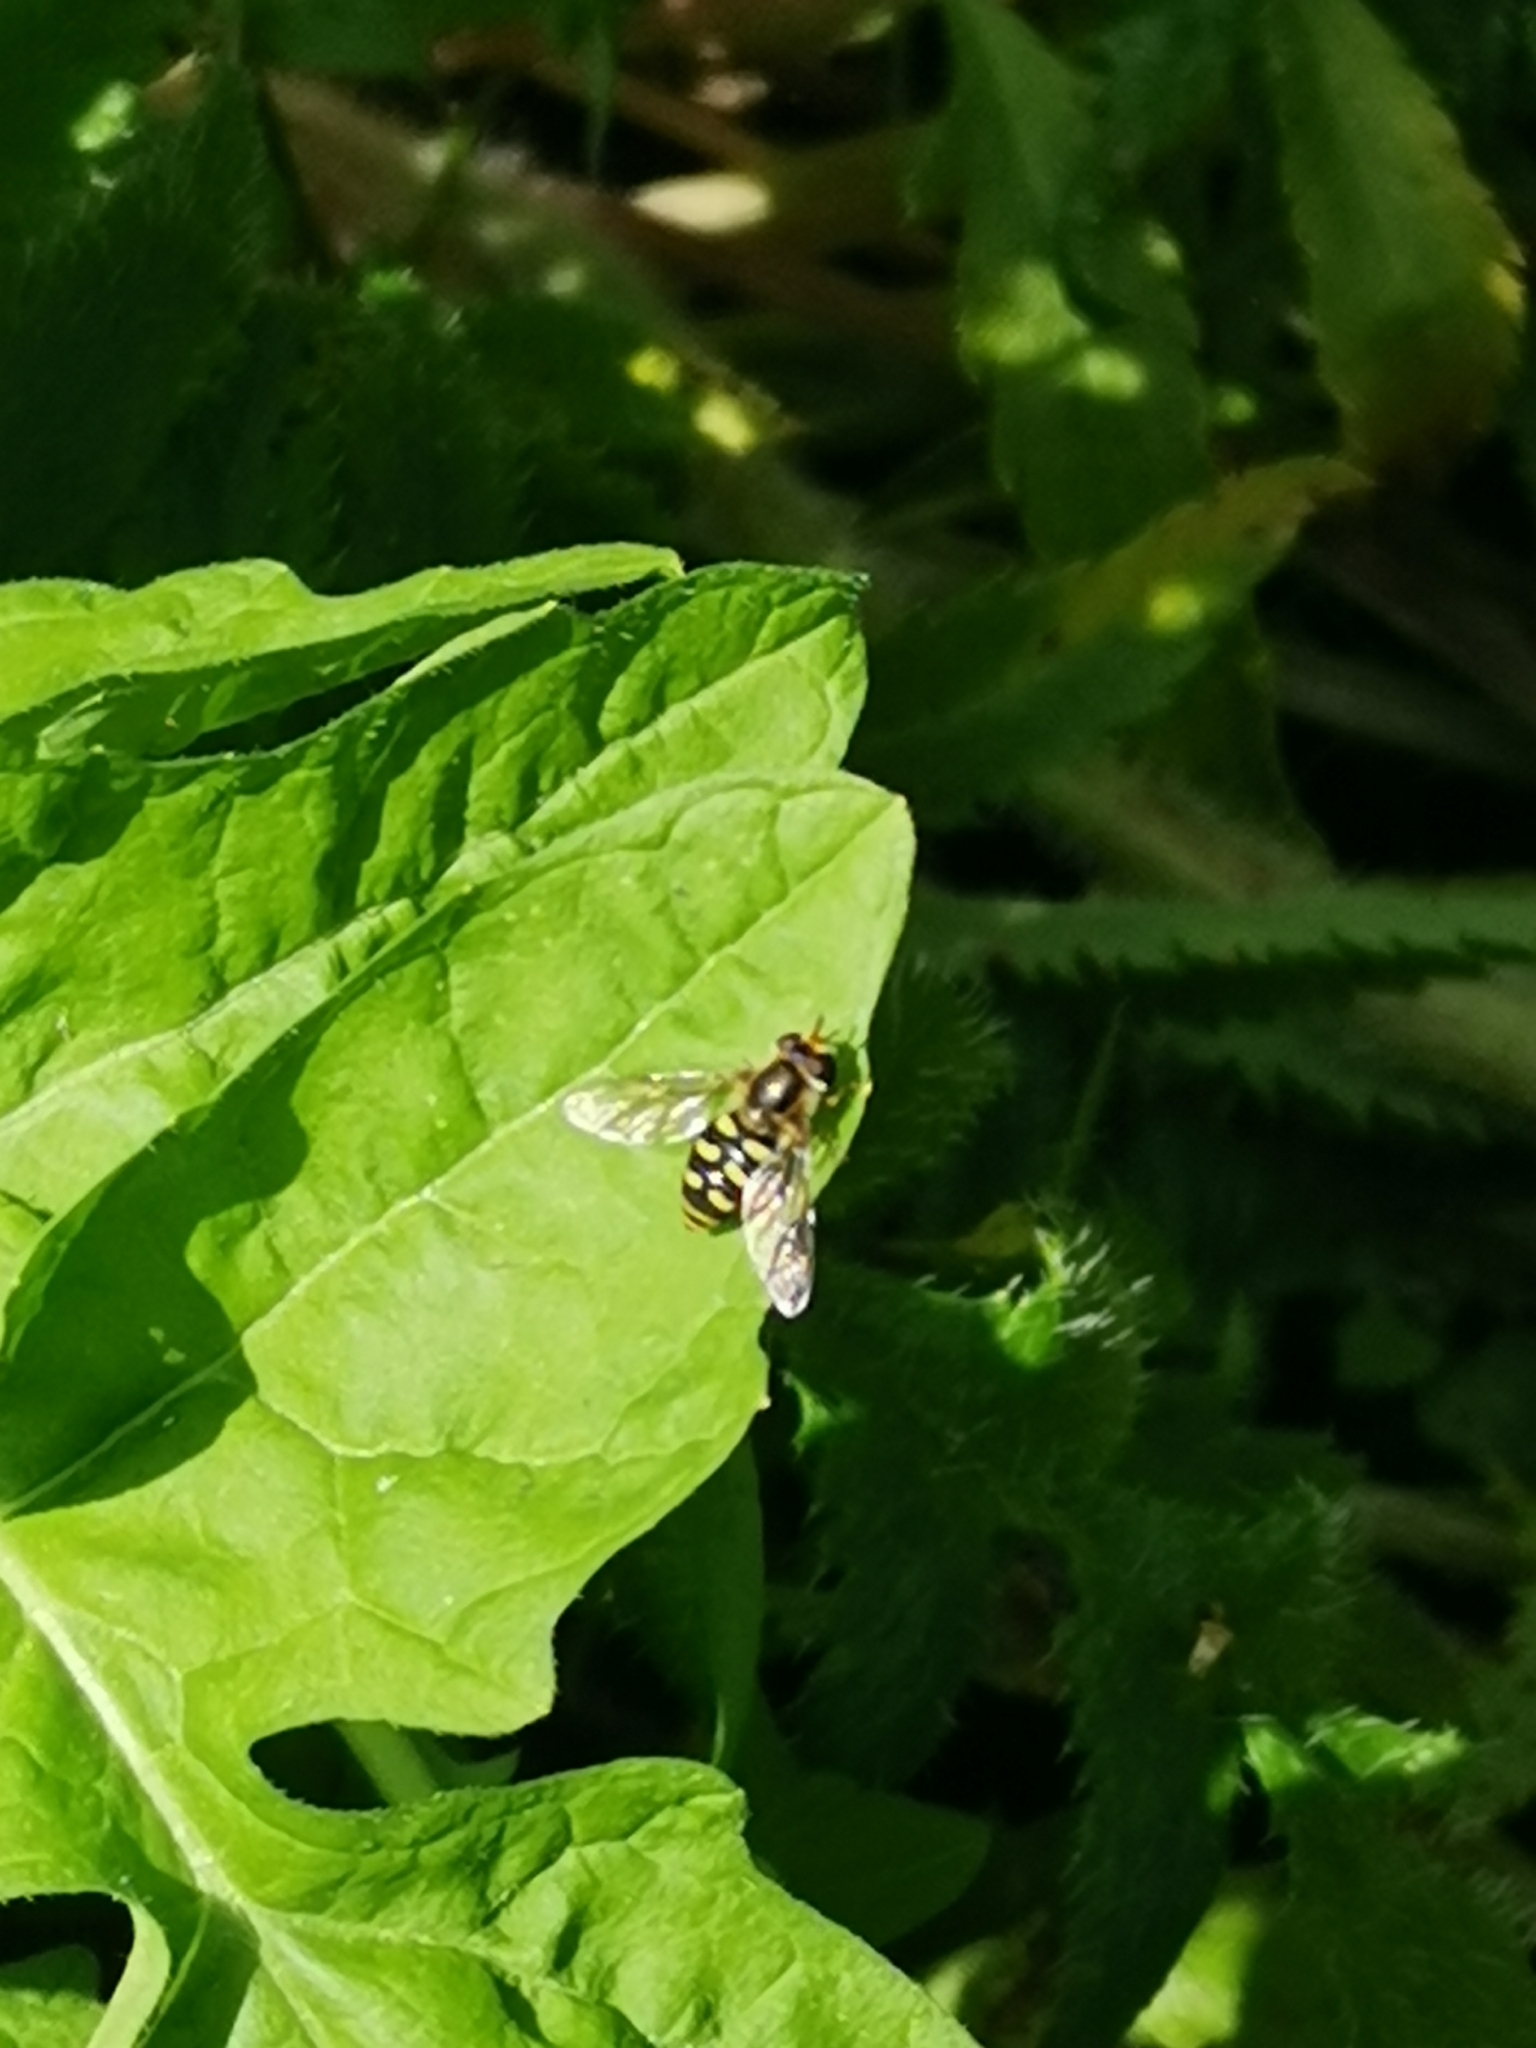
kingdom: Animalia
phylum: Arthropoda
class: Insecta
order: Diptera
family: Syrphidae
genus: Eupeodes
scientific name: Eupeodes
